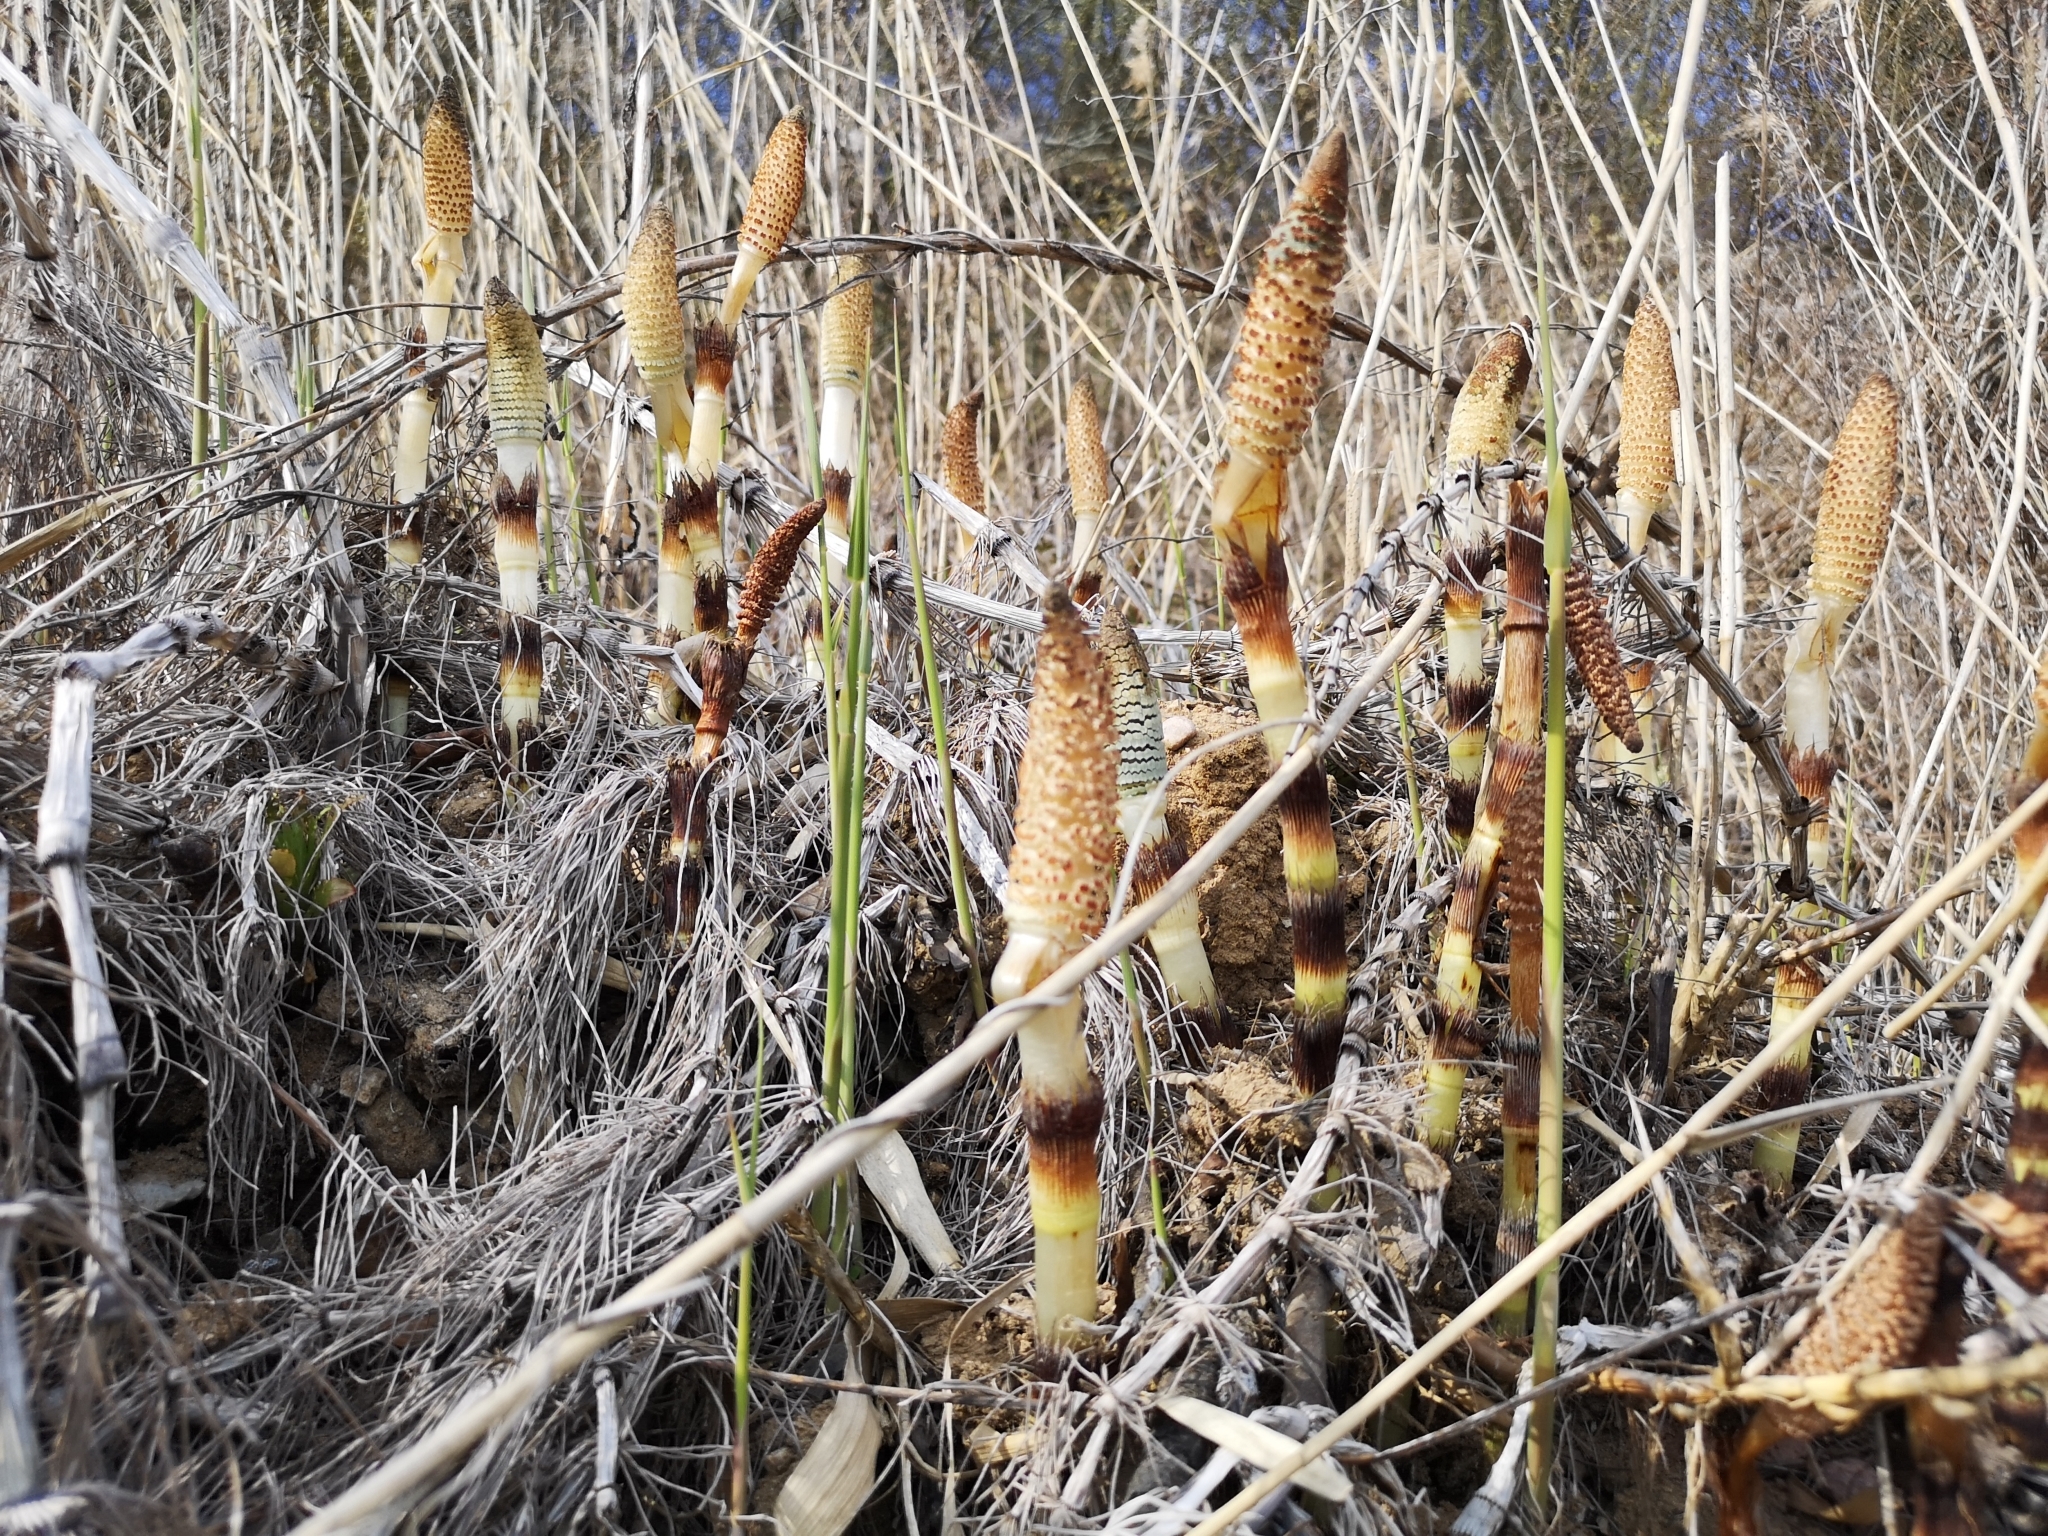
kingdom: Plantae
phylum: Tracheophyta
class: Polypodiopsida
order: Equisetales
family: Equisetaceae
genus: Equisetum
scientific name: Equisetum telmateia
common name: Great horsetail
